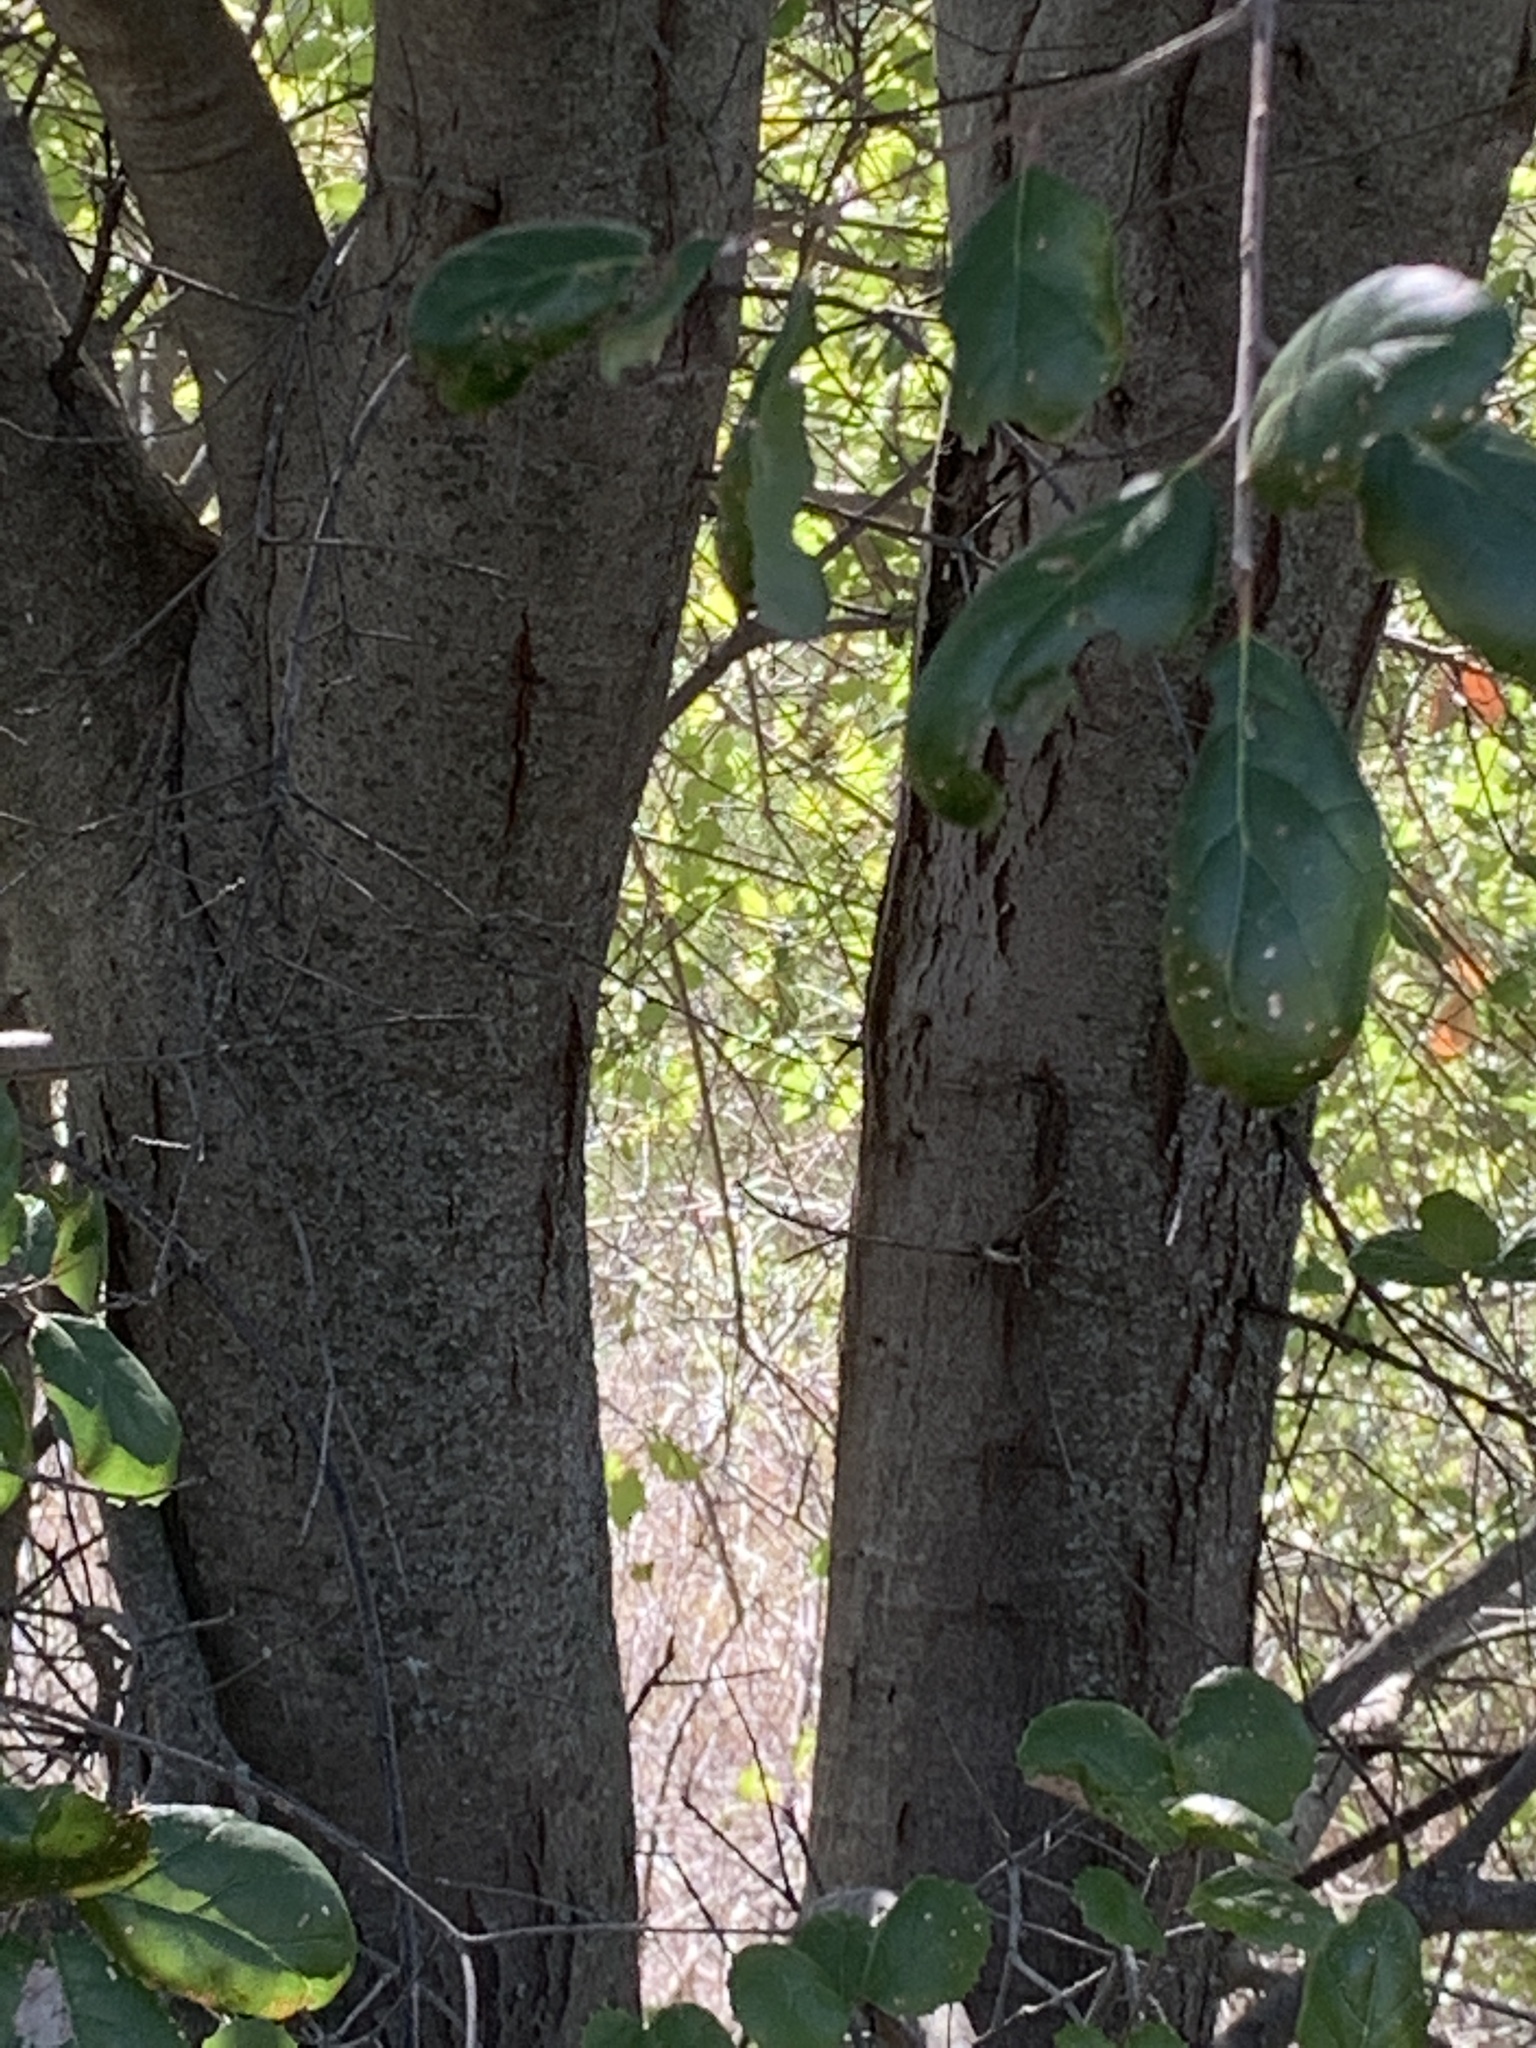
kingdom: Plantae
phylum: Tracheophyta
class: Magnoliopsida
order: Fagales
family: Fagaceae
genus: Quercus
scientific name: Quercus agrifolia
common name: California live oak
